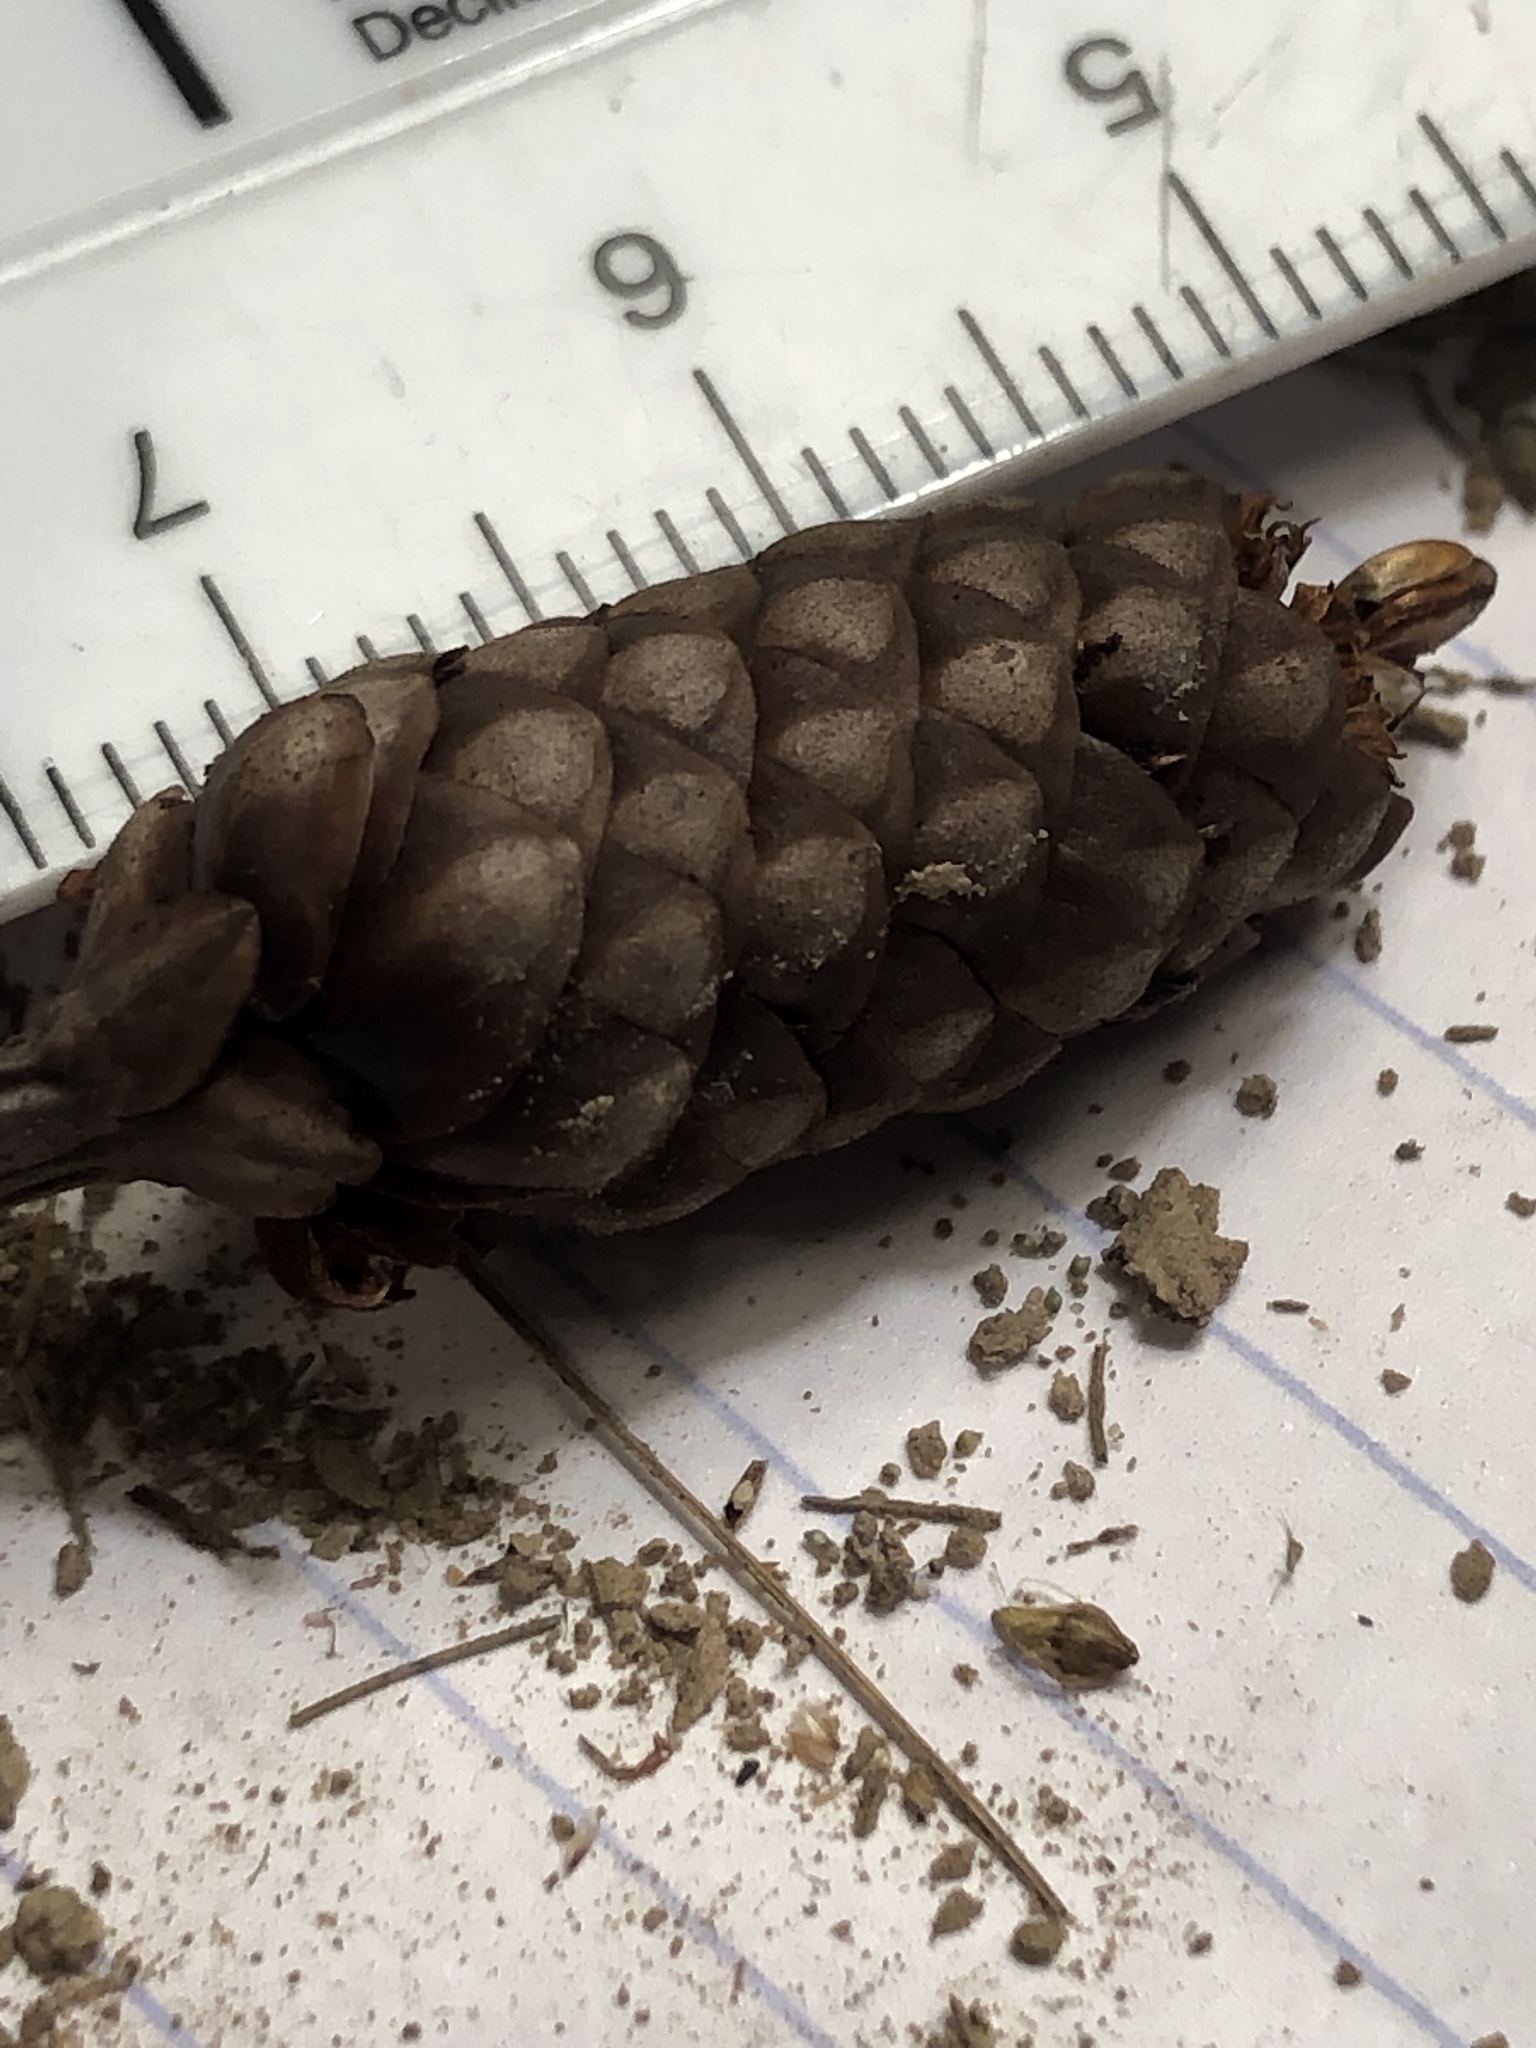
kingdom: Plantae
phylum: Tracheophyta
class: Liliopsida
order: Poales
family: Xyridaceae
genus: Xyris
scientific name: Xyris laxifolia
